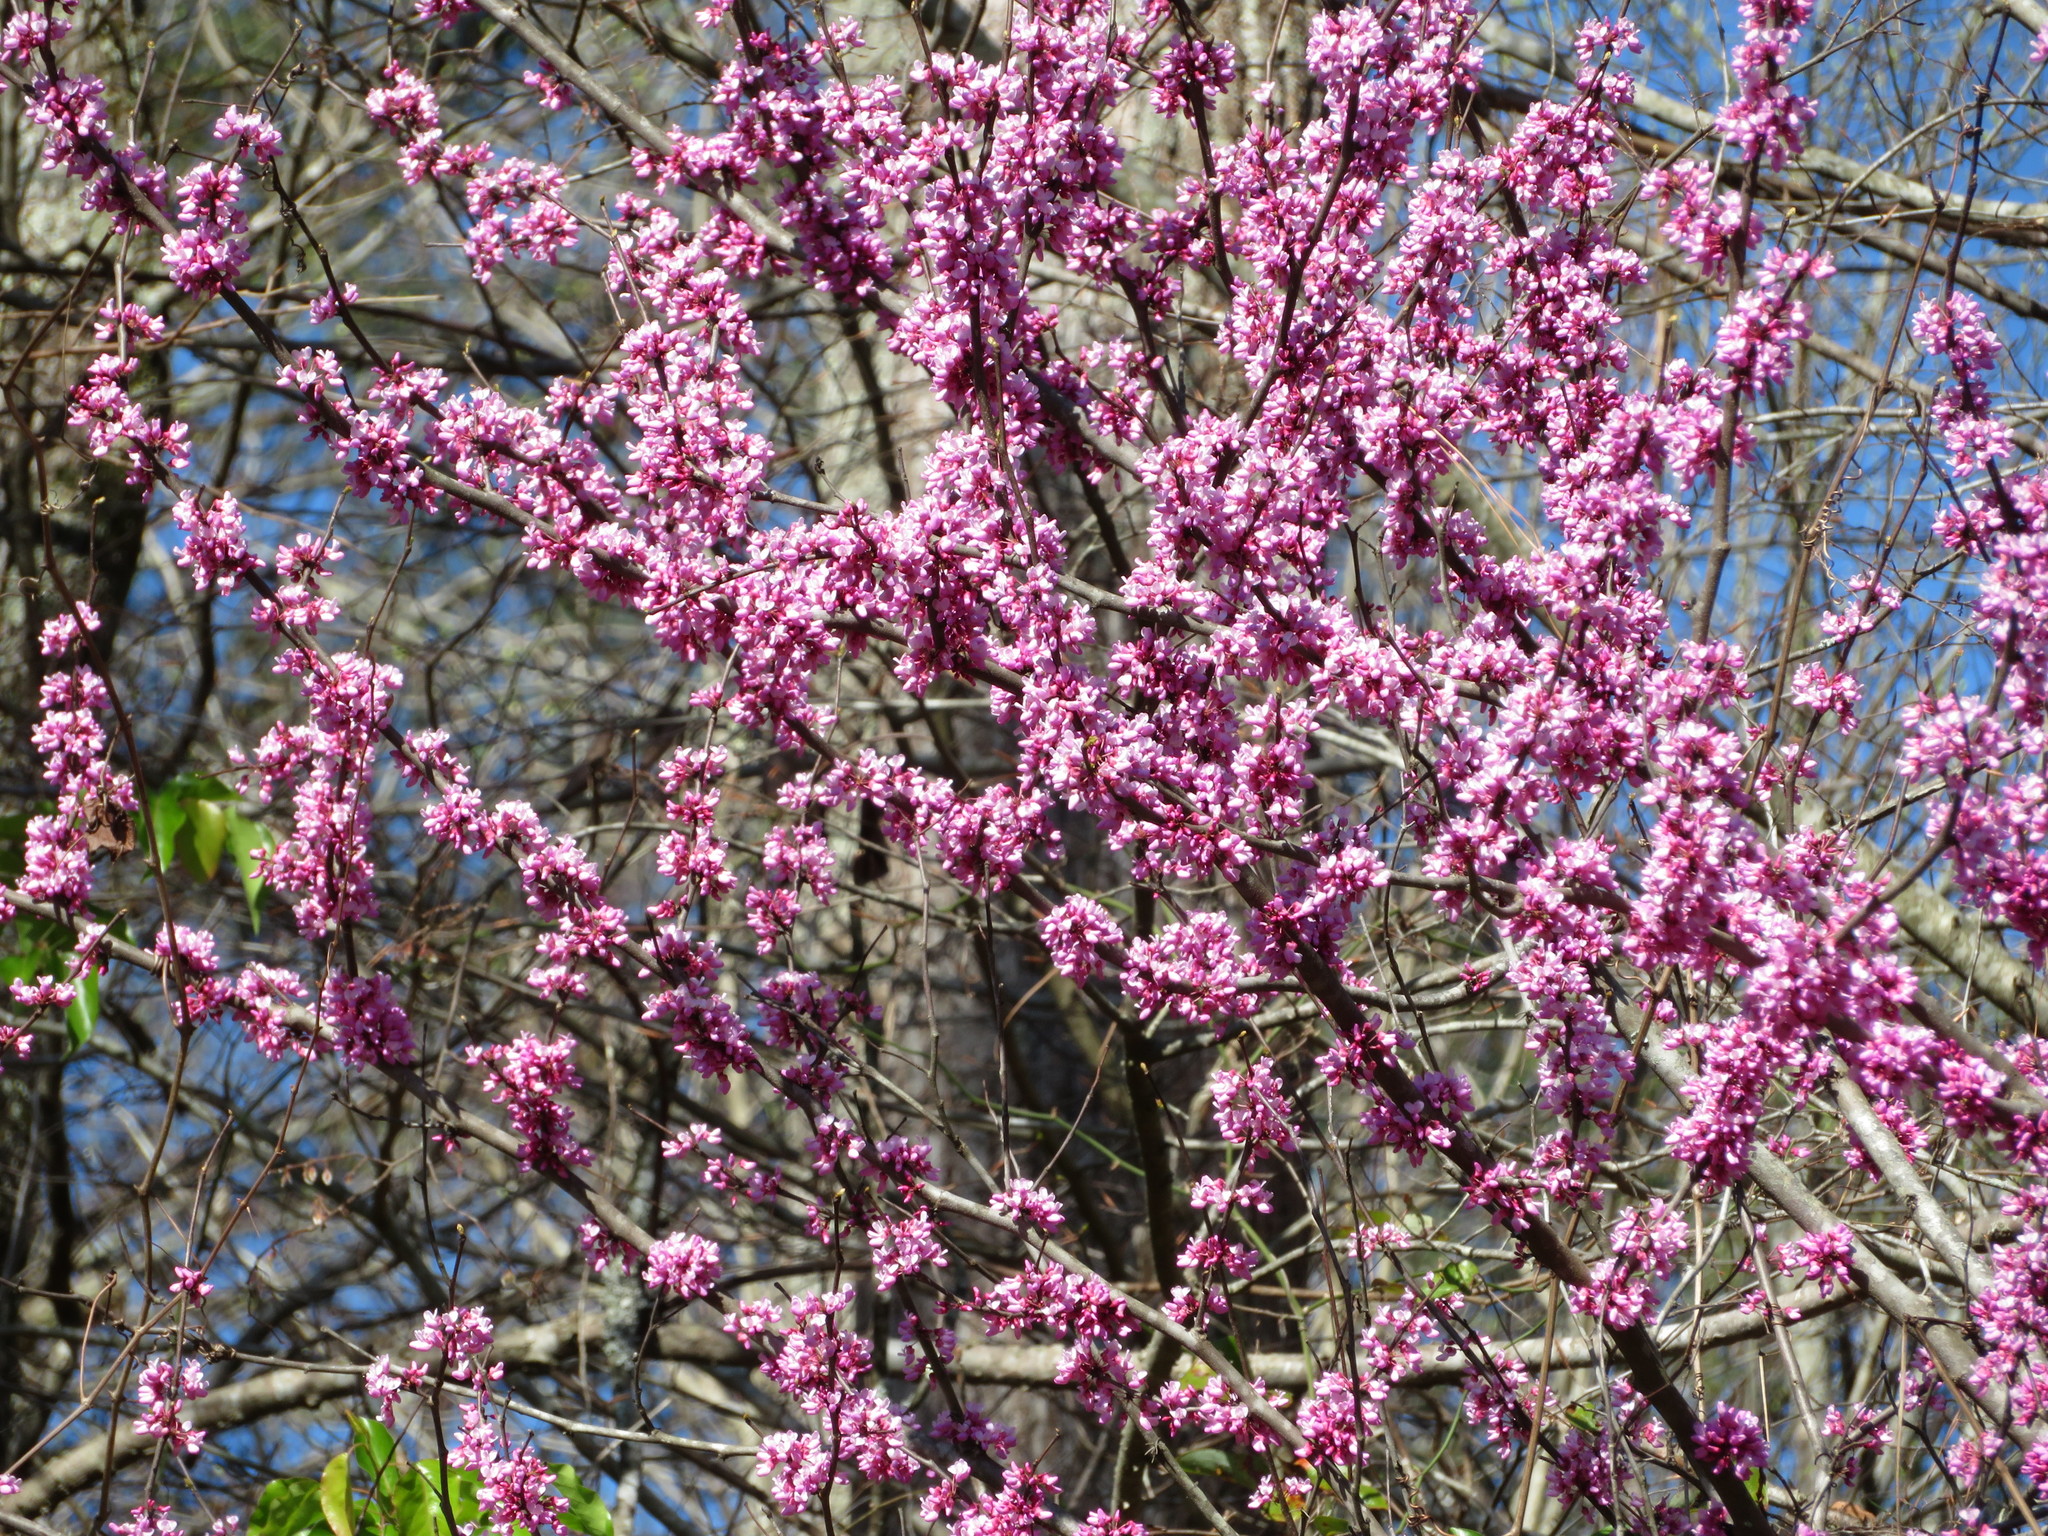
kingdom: Plantae
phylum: Tracheophyta
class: Magnoliopsida
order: Fabales
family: Fabaceae
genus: Cercis
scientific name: Cercis canadensis
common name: Eastern redbud
